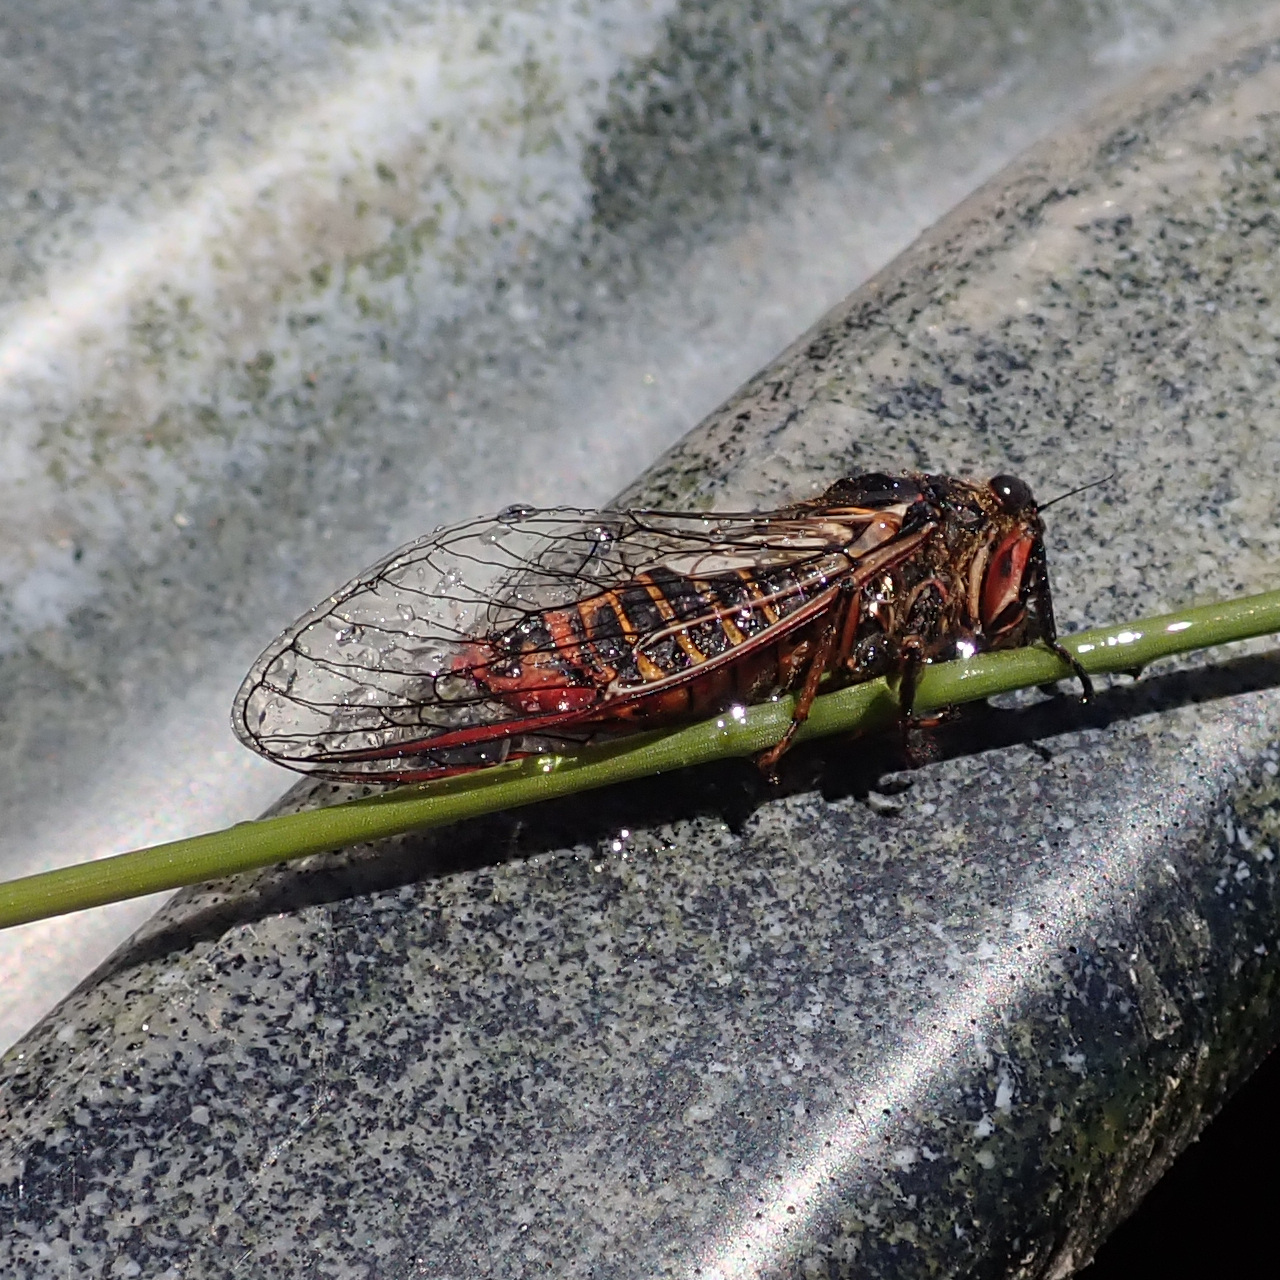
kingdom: Animalia
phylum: Arthropoda
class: Insecta
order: Hemiptera
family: Cicadidae
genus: Yoyetta
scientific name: Yoyetta abdominalis
